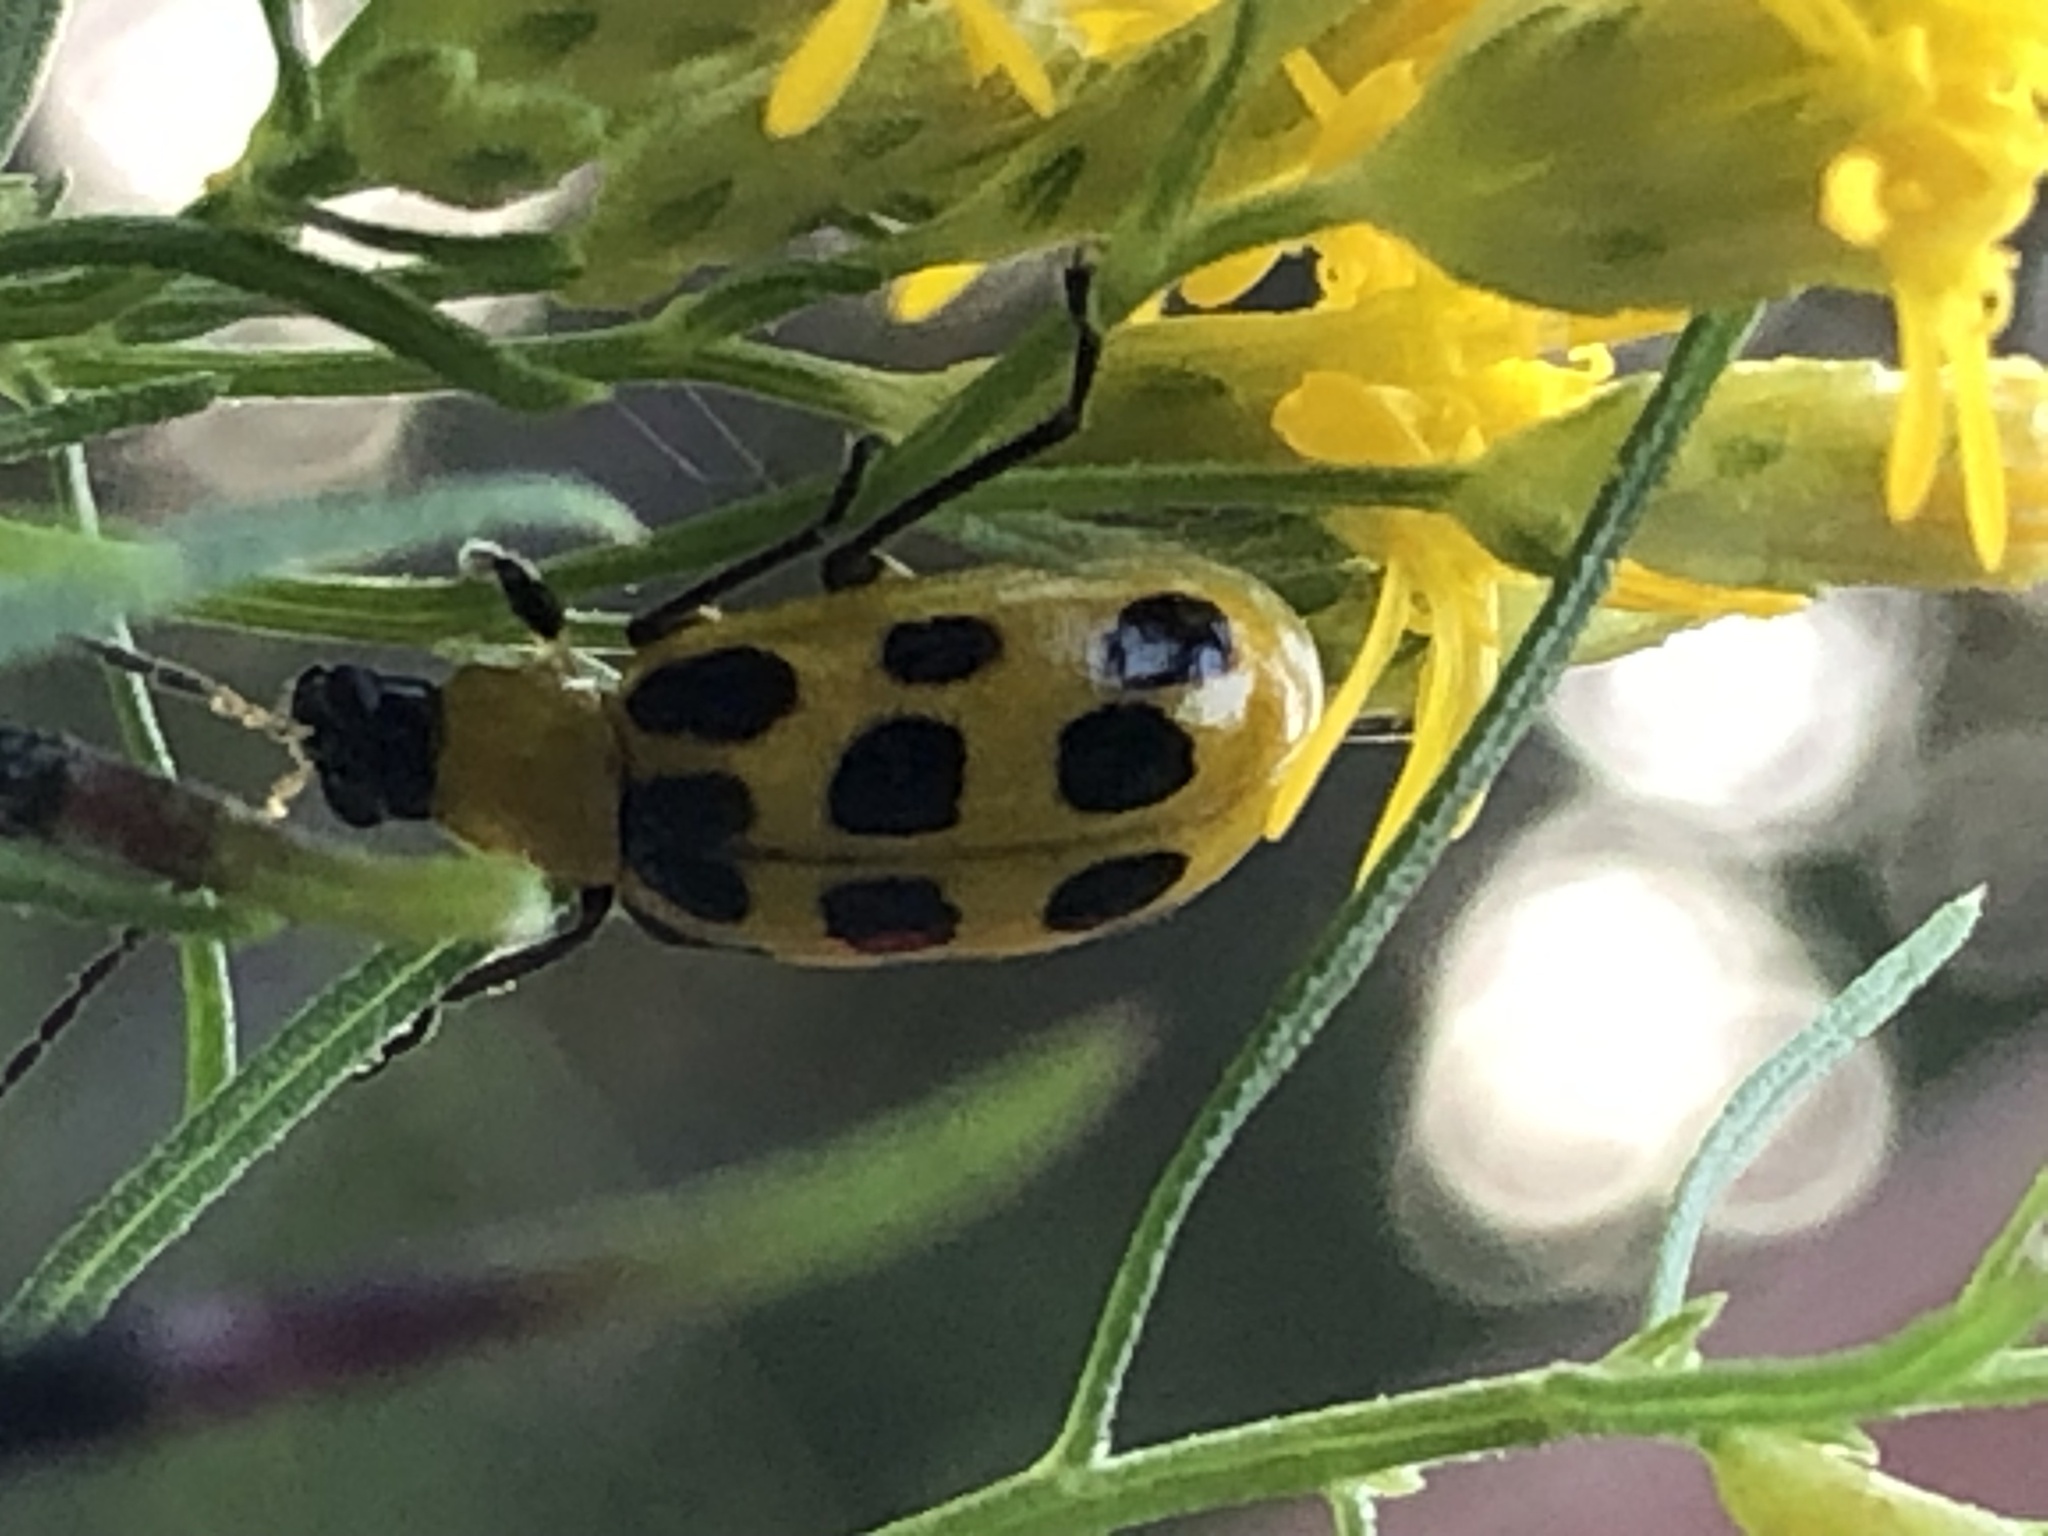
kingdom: Animalia
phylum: Arthropoda
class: Insecta
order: Coleoptera
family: Chrysomelidae
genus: Diabrotica
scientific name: Diabrotica undecimpunctata
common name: Spotted cucumber beetle
